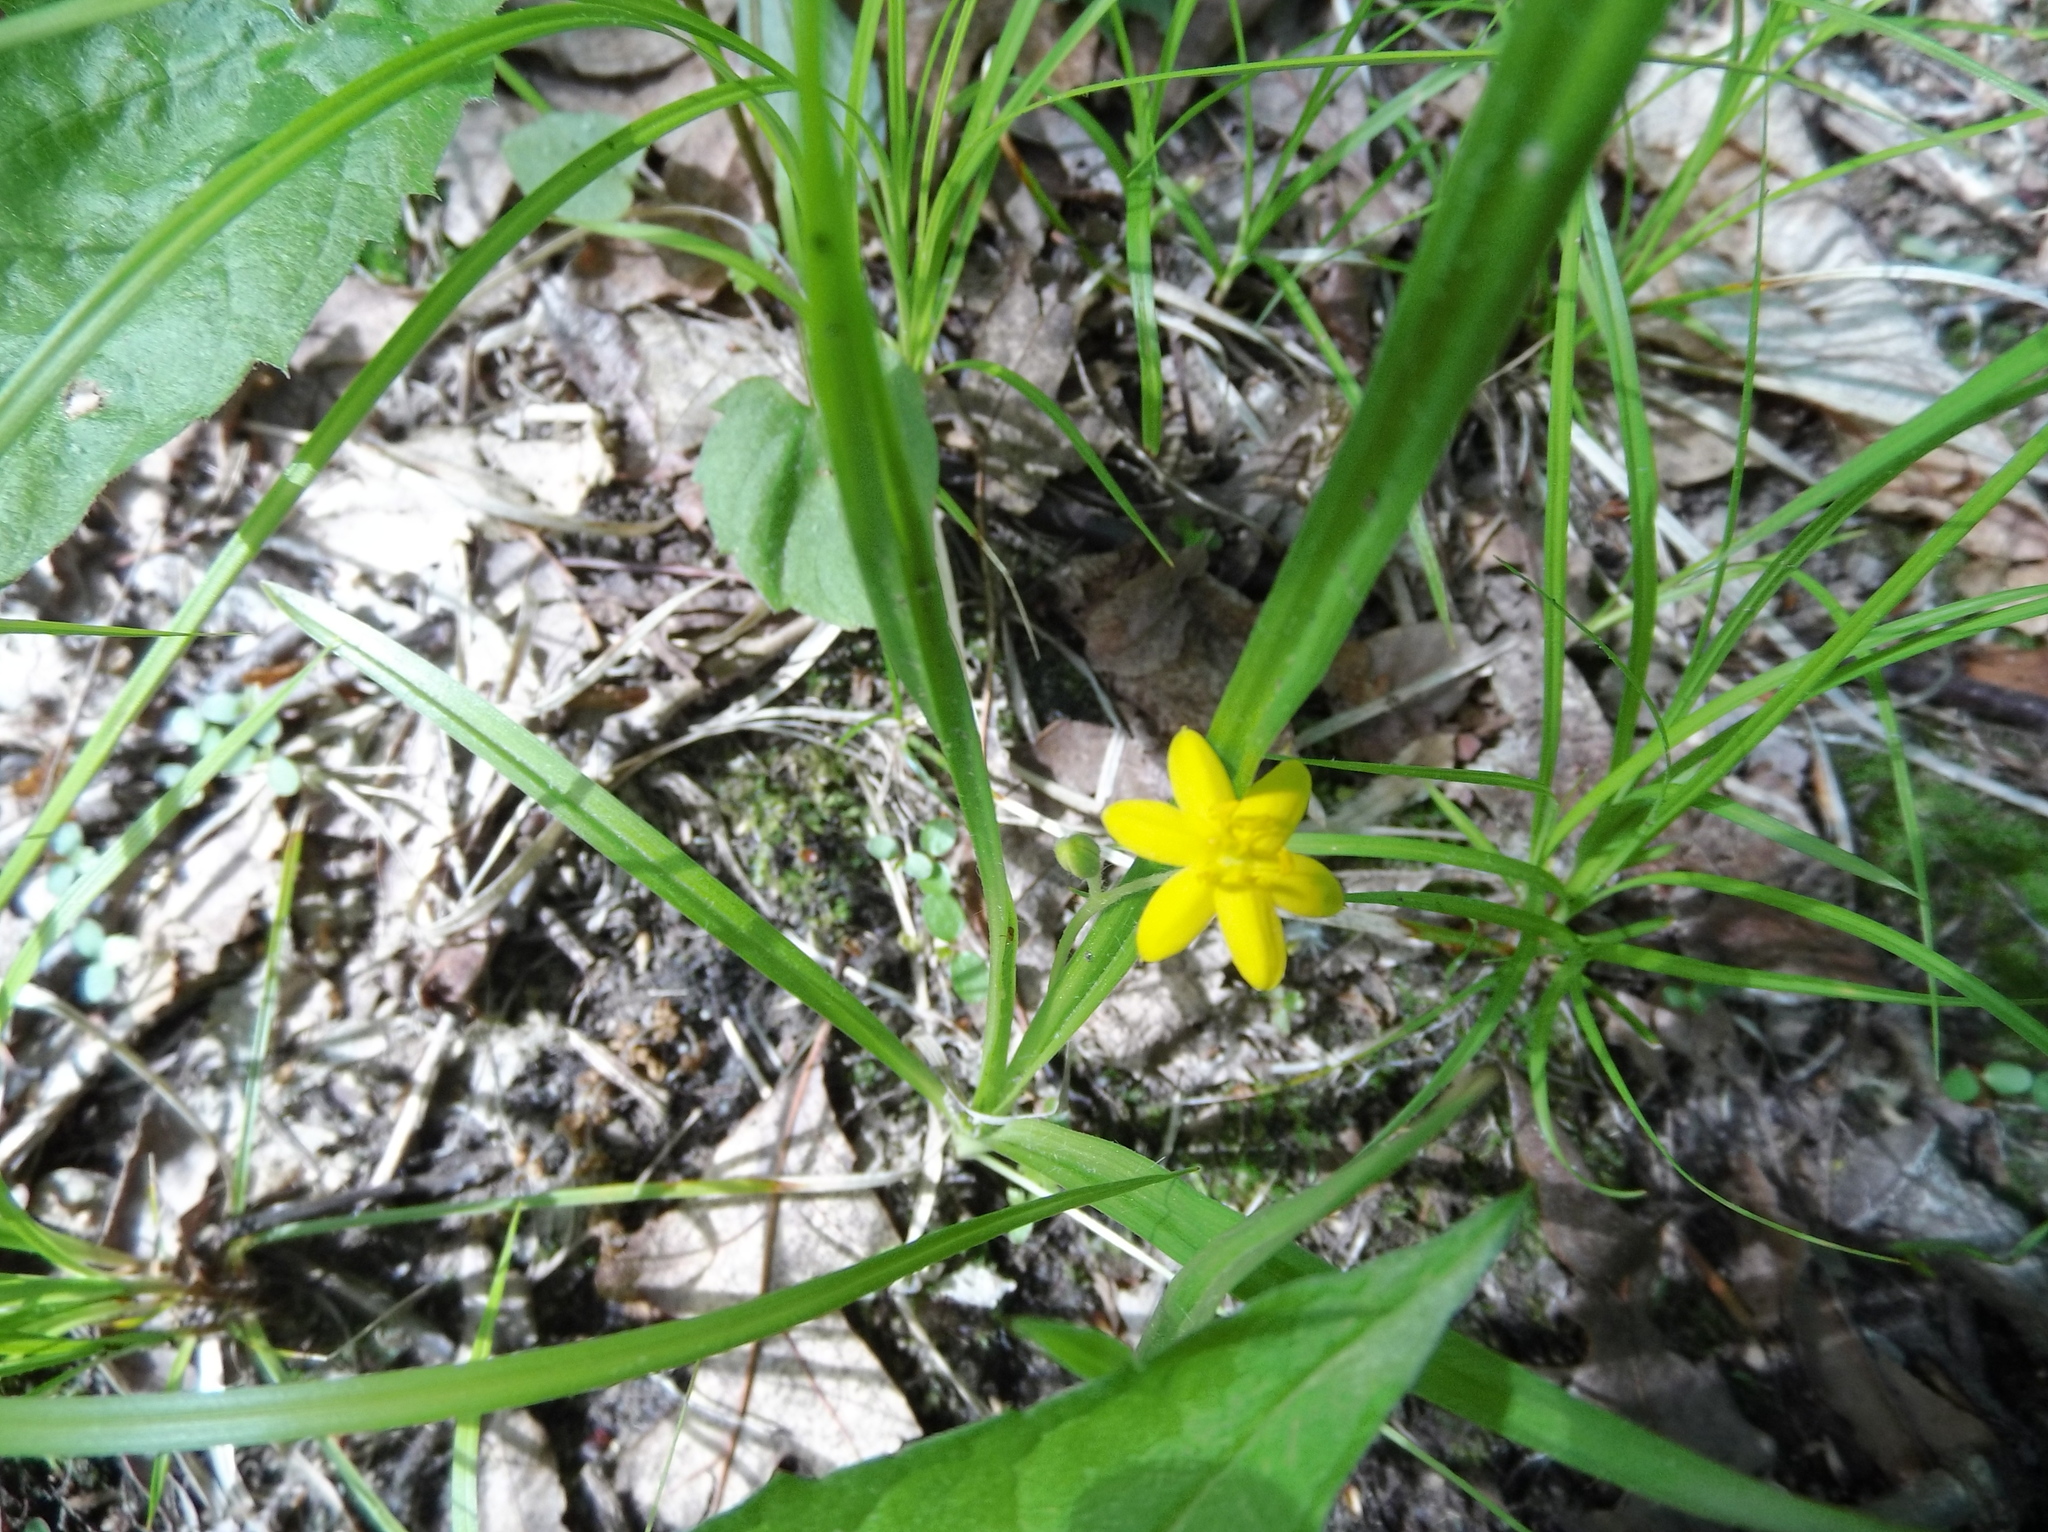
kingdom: Plantae
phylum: Tracheophyta
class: Liliopsida
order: Asparagales
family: Hypoxidaceae
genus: Hypoxis
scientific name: Hypoxis hirsuta
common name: Common goldstar
